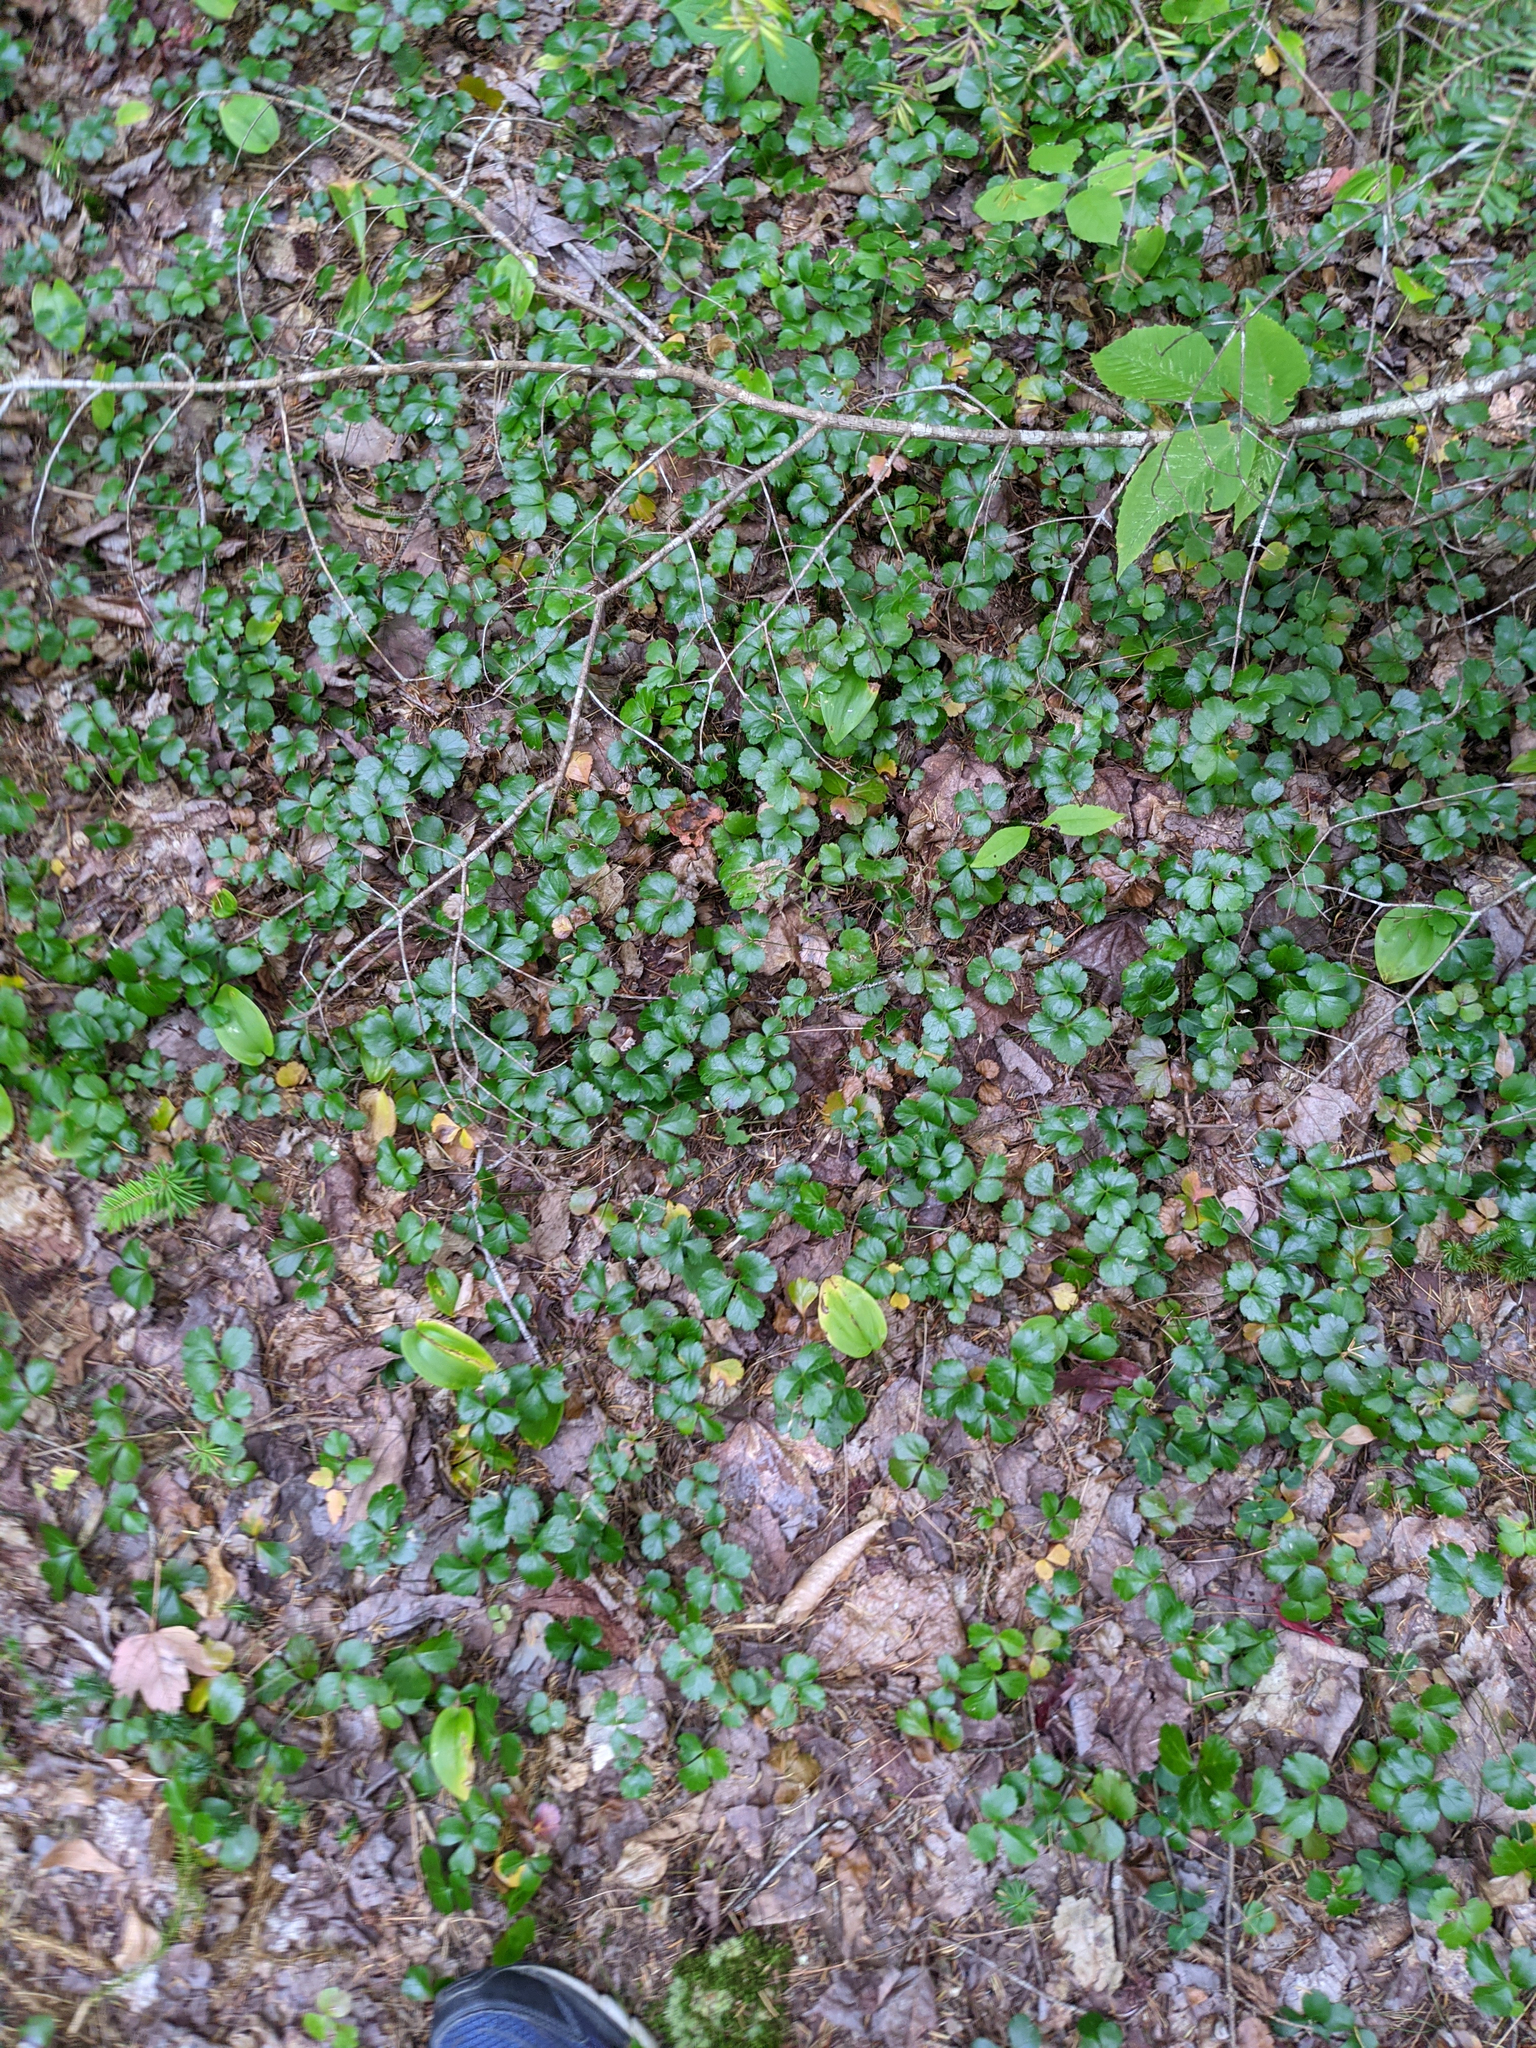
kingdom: Plantae
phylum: Tracheophyta
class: Magnoliopsida
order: Ranunculales
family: Ranunculaceae
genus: Coptis
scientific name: Coptis trifolia
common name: Canker-root
